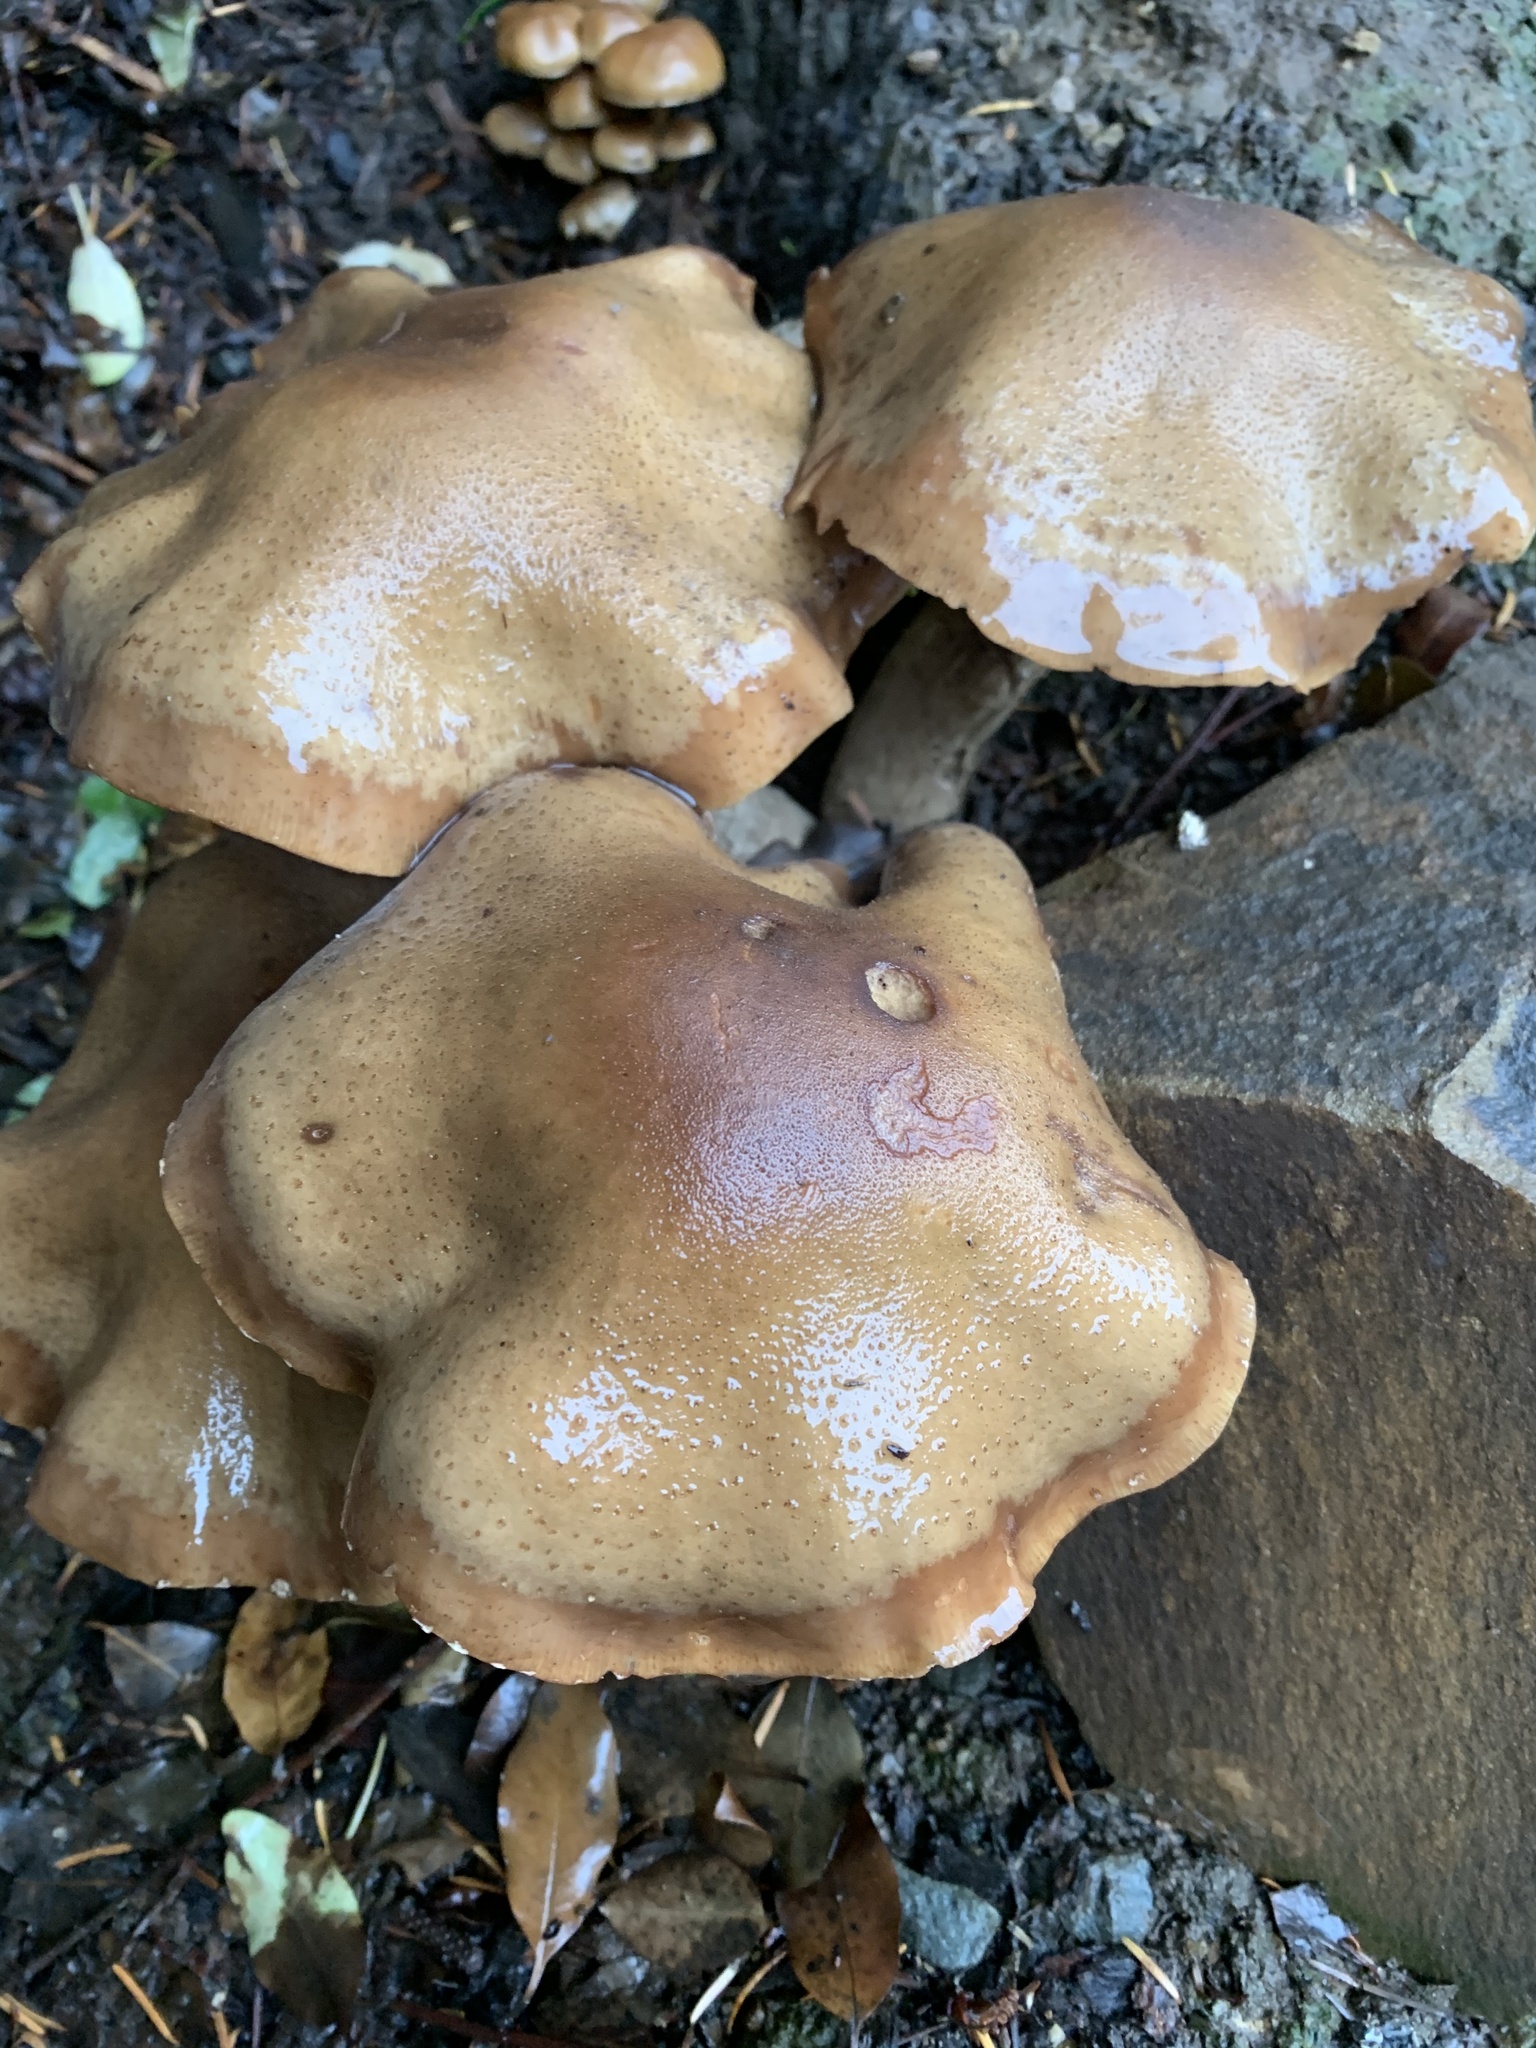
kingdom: Fungi
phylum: Basidiomycota
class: Agaricomycetes
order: Agaricales
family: Physalacriaceae
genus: Armillaria
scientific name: Armillaria mellea
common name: Honey fungus
